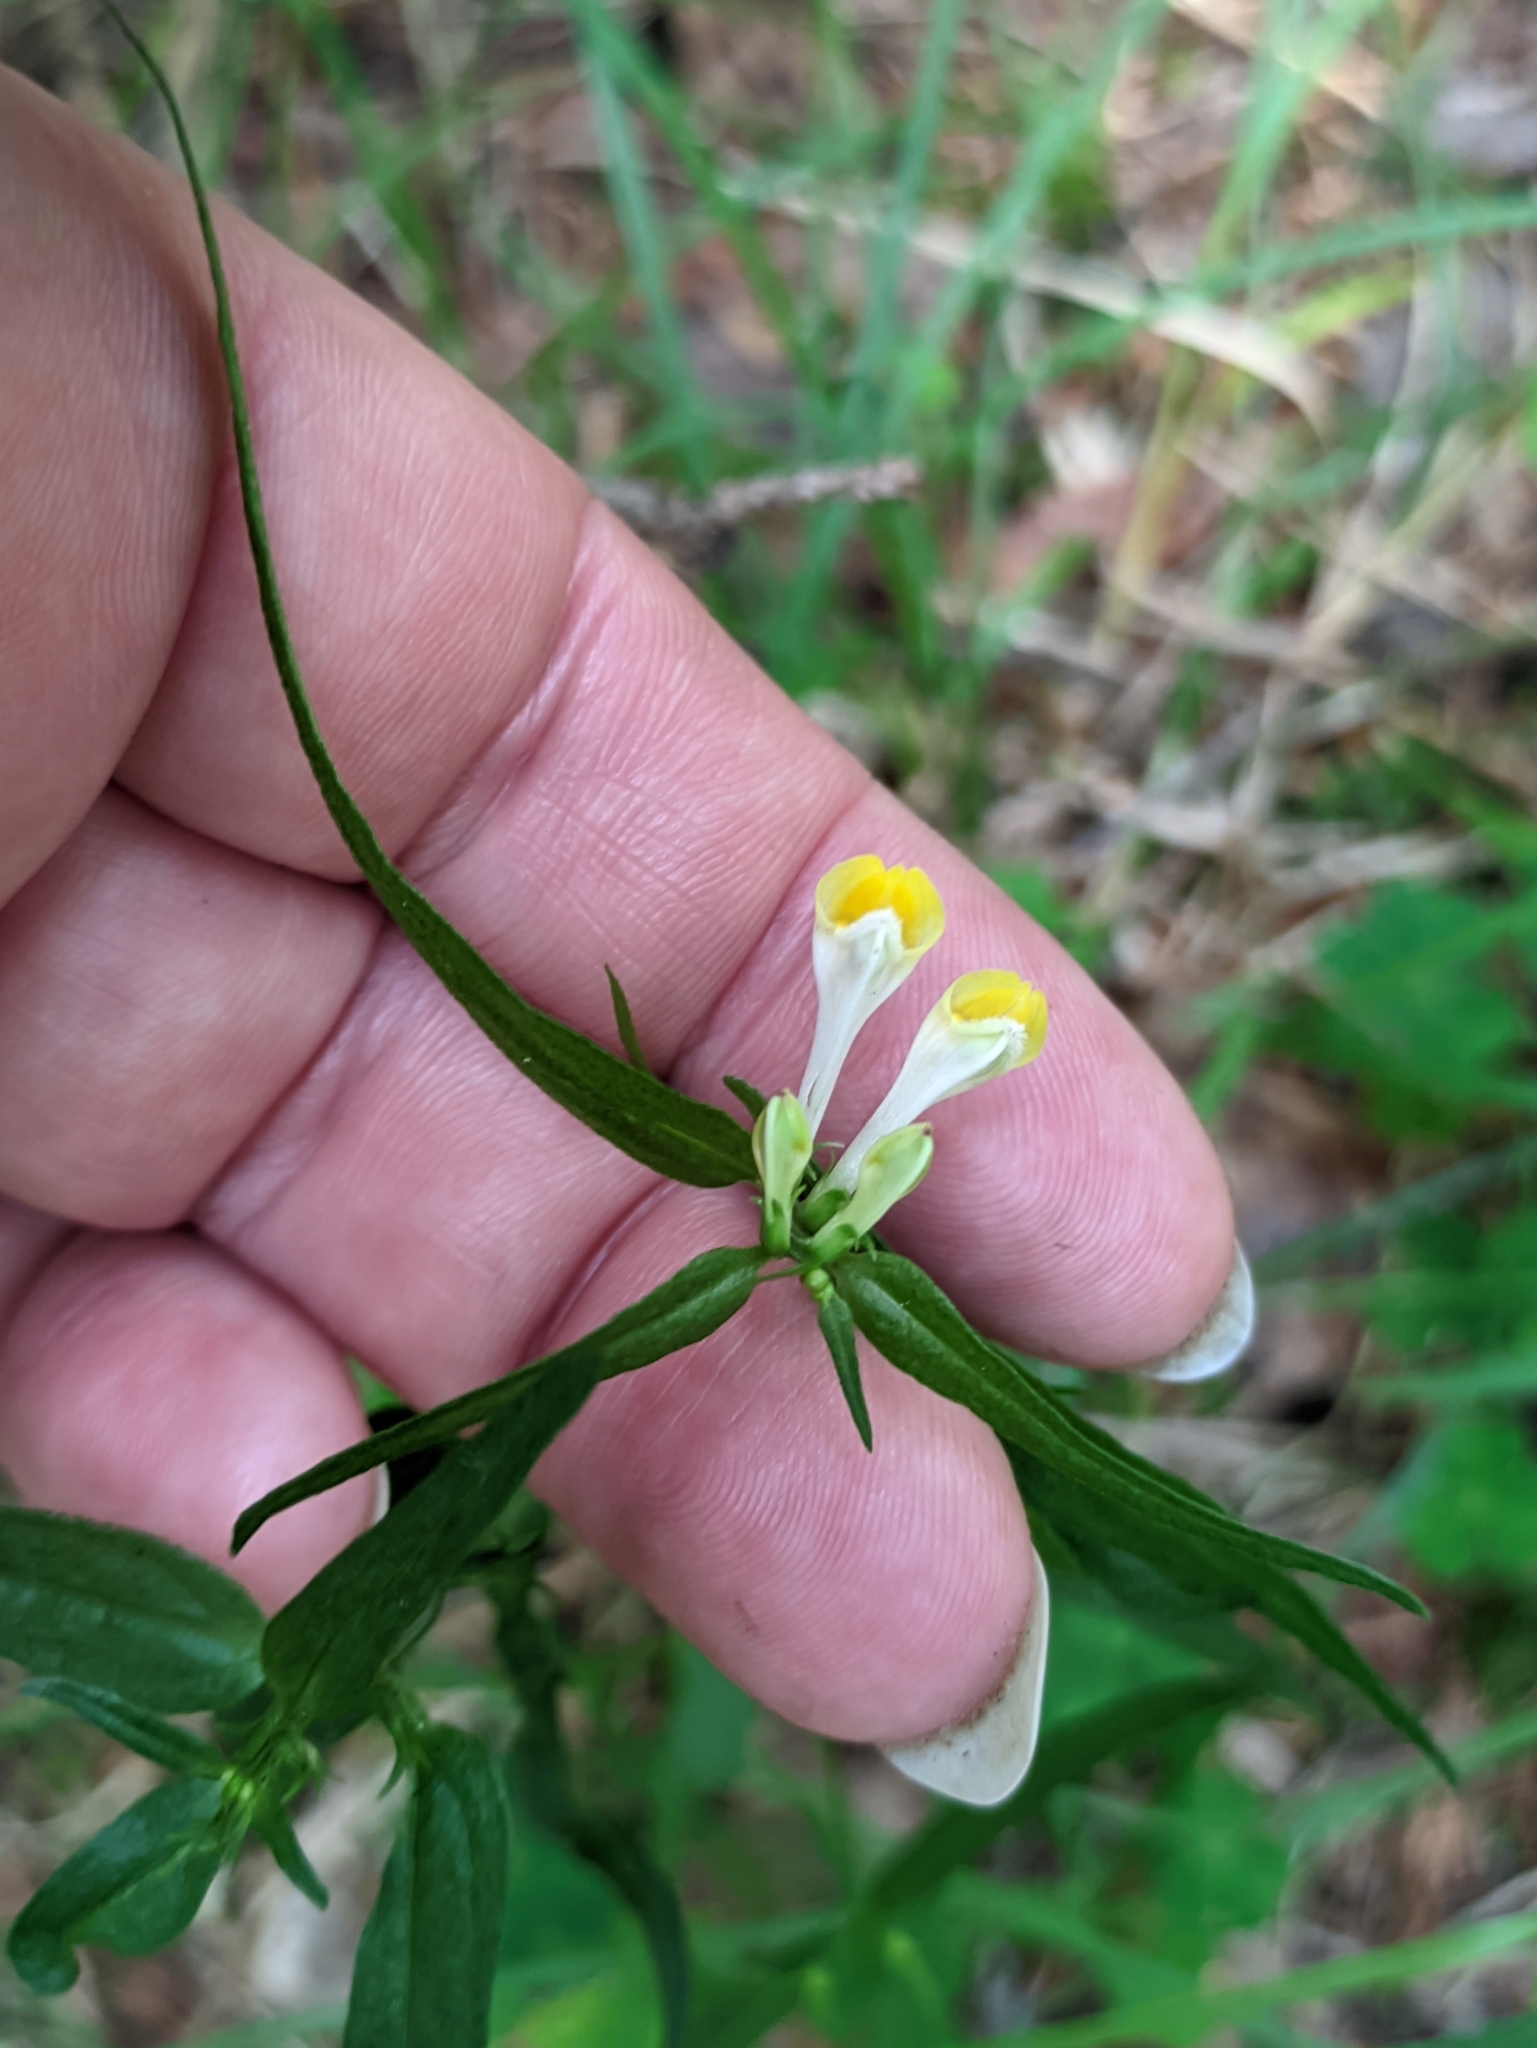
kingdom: Plantae
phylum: Tracheophyta
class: Magnoliopsida
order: Lamiales
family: Orobanchaceae
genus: Melampyrum
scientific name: Melampyrum pratense
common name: Common cow-wheat
